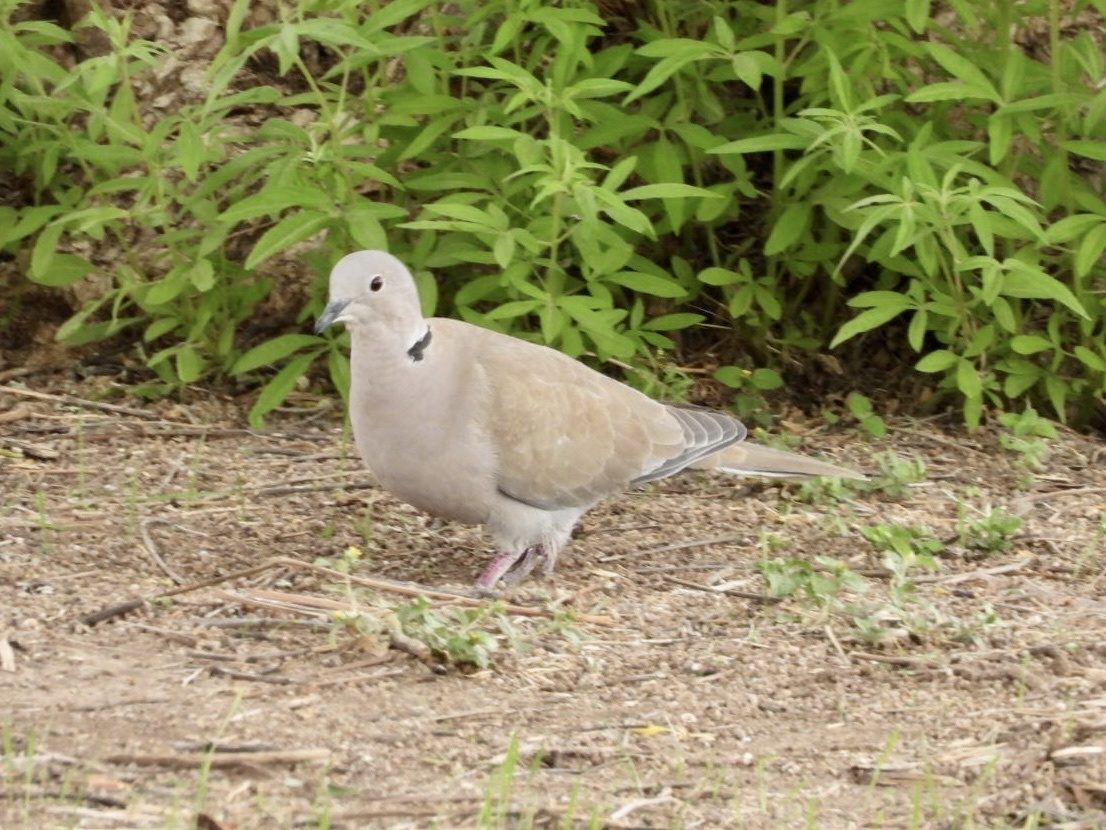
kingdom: Animalia
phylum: Chordata
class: Aves
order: Columbiformes
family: Columbidae
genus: Streptopelia
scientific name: Streptopelia decaocto
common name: Eurasian collared dove
